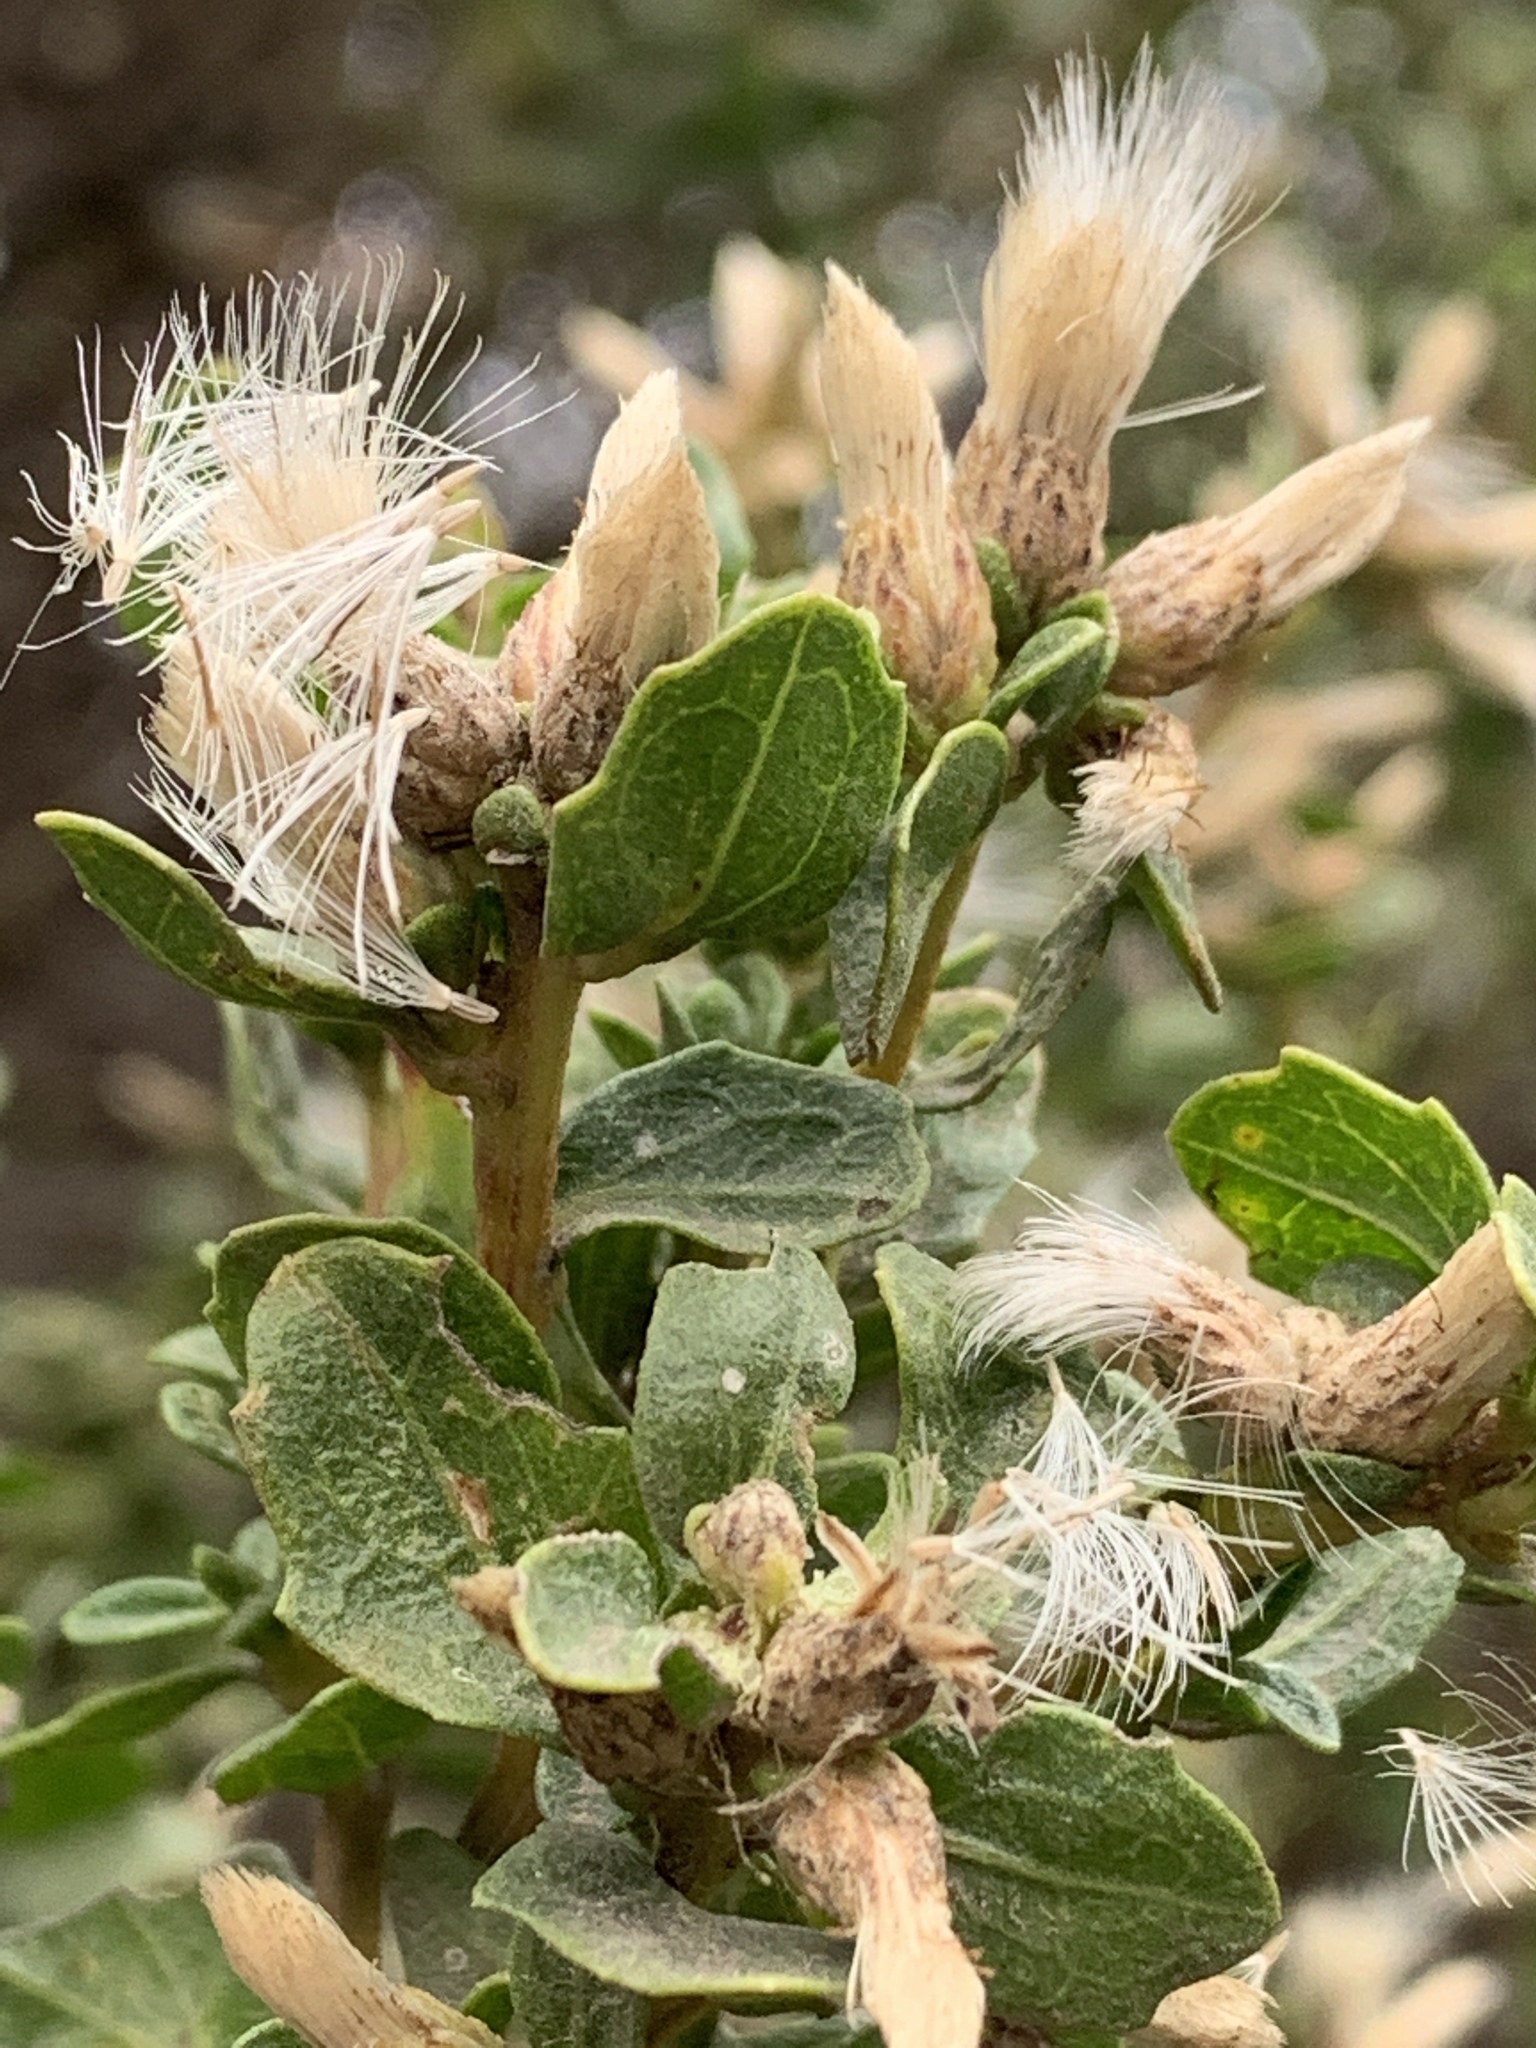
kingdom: Plantae
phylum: Tracheophyta
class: Magnoliopsida
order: Asterales
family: Asteraceae
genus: Baccharis
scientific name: Baccharis pilularis
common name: Coyotebrush
